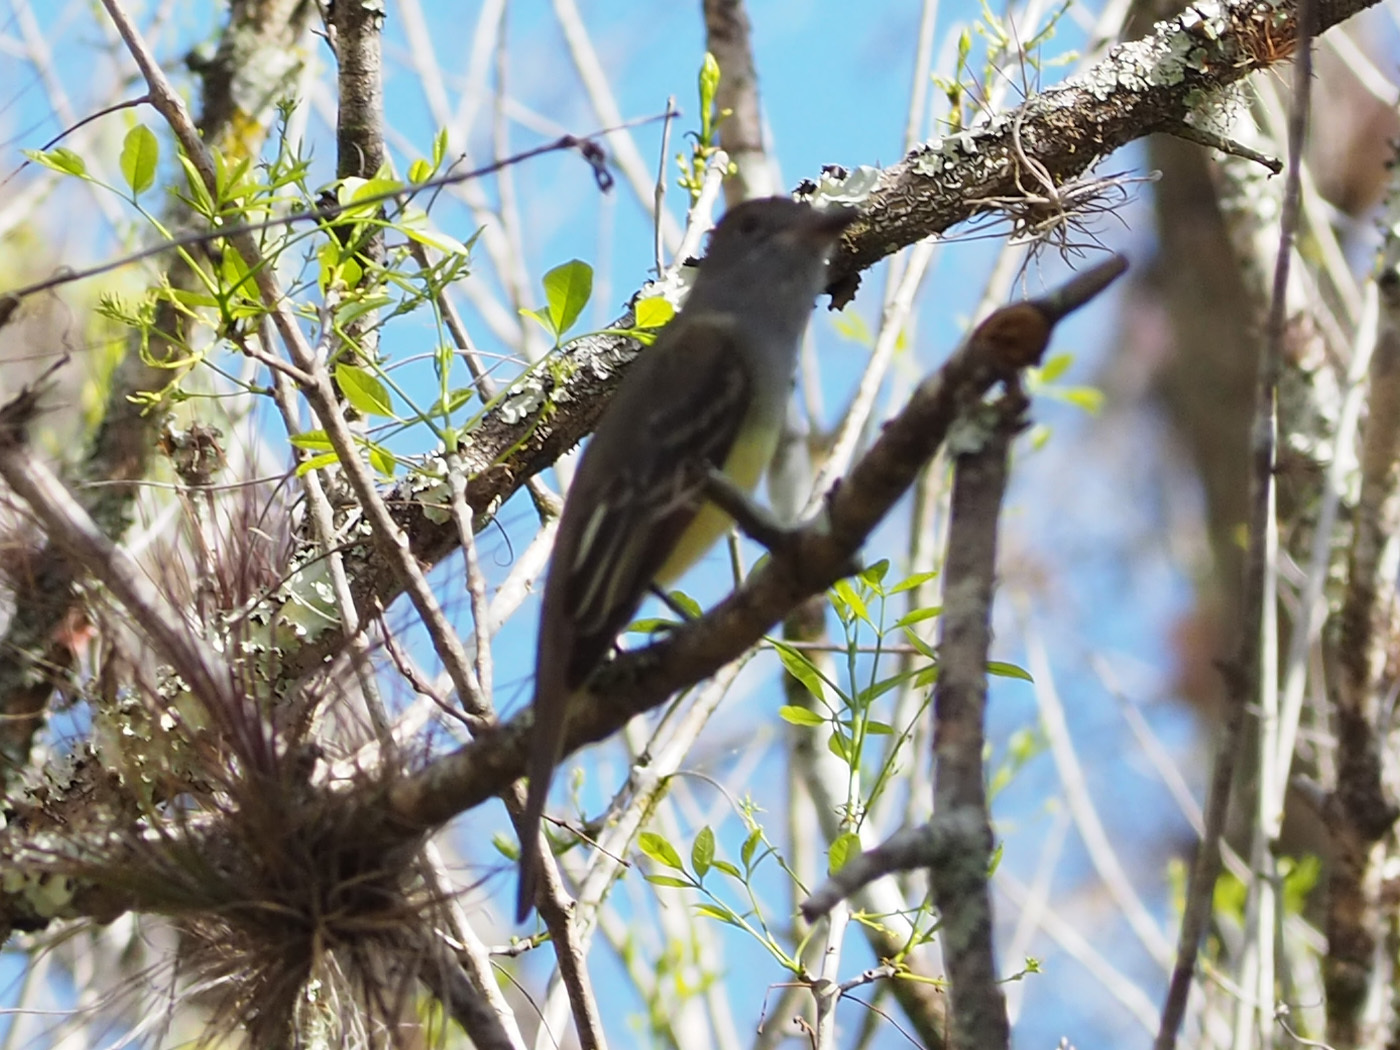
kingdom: Animalia
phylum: Chordata
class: Aves
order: Passeriformes
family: Tyrannidae
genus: Myiarchus
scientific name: Myiarchus crinitus
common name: Great crested flycatcher
